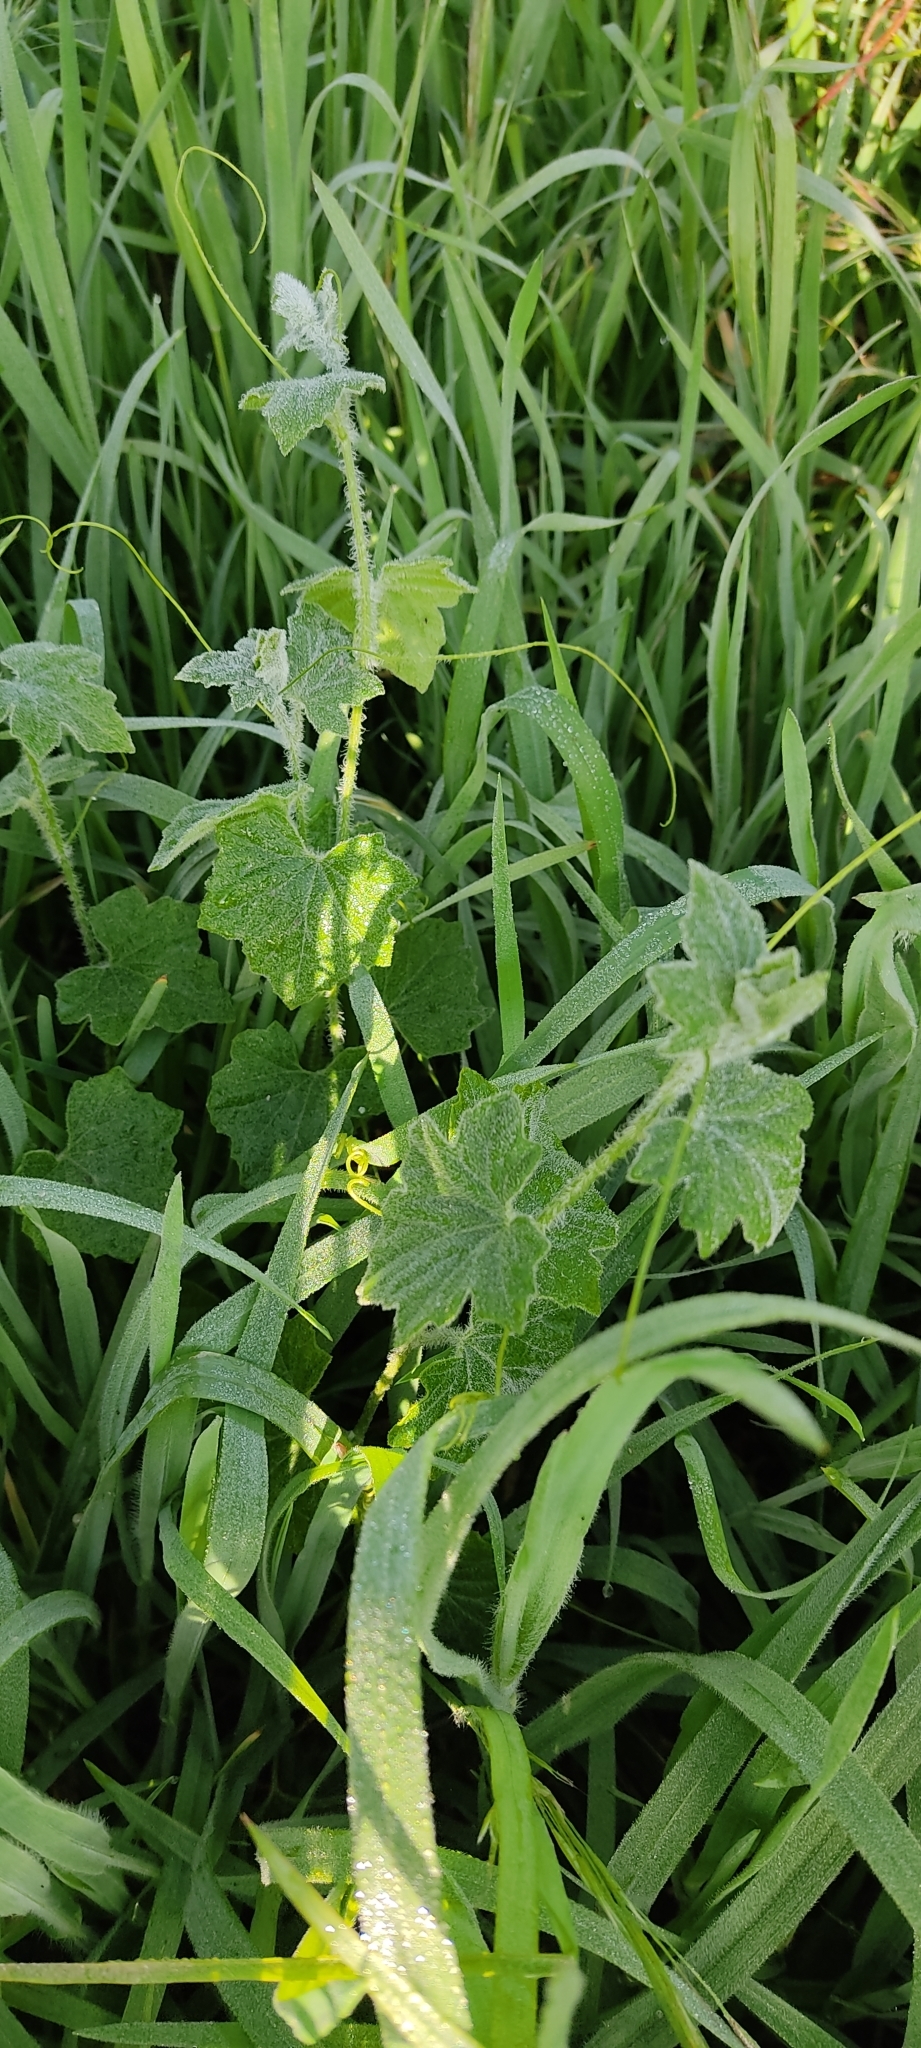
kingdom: Plantae
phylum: Tracheophyta
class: Magnoliopsida
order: Cucurbitales
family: Cucurbitaceae
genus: Bryonia
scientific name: Bryonia dioica
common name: White bryony
